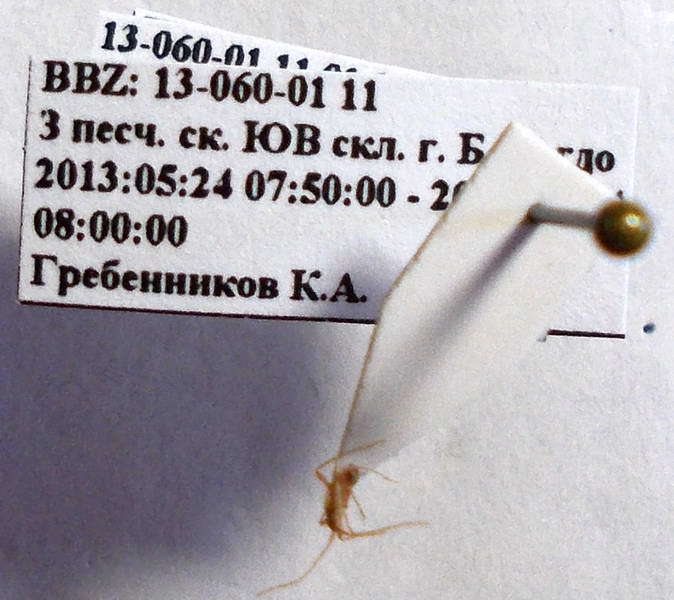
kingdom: Animalia
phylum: Arthropoda
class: Insecta
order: Hemiptera
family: Miridae
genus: Hallodapus
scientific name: Hallodapus concolor
